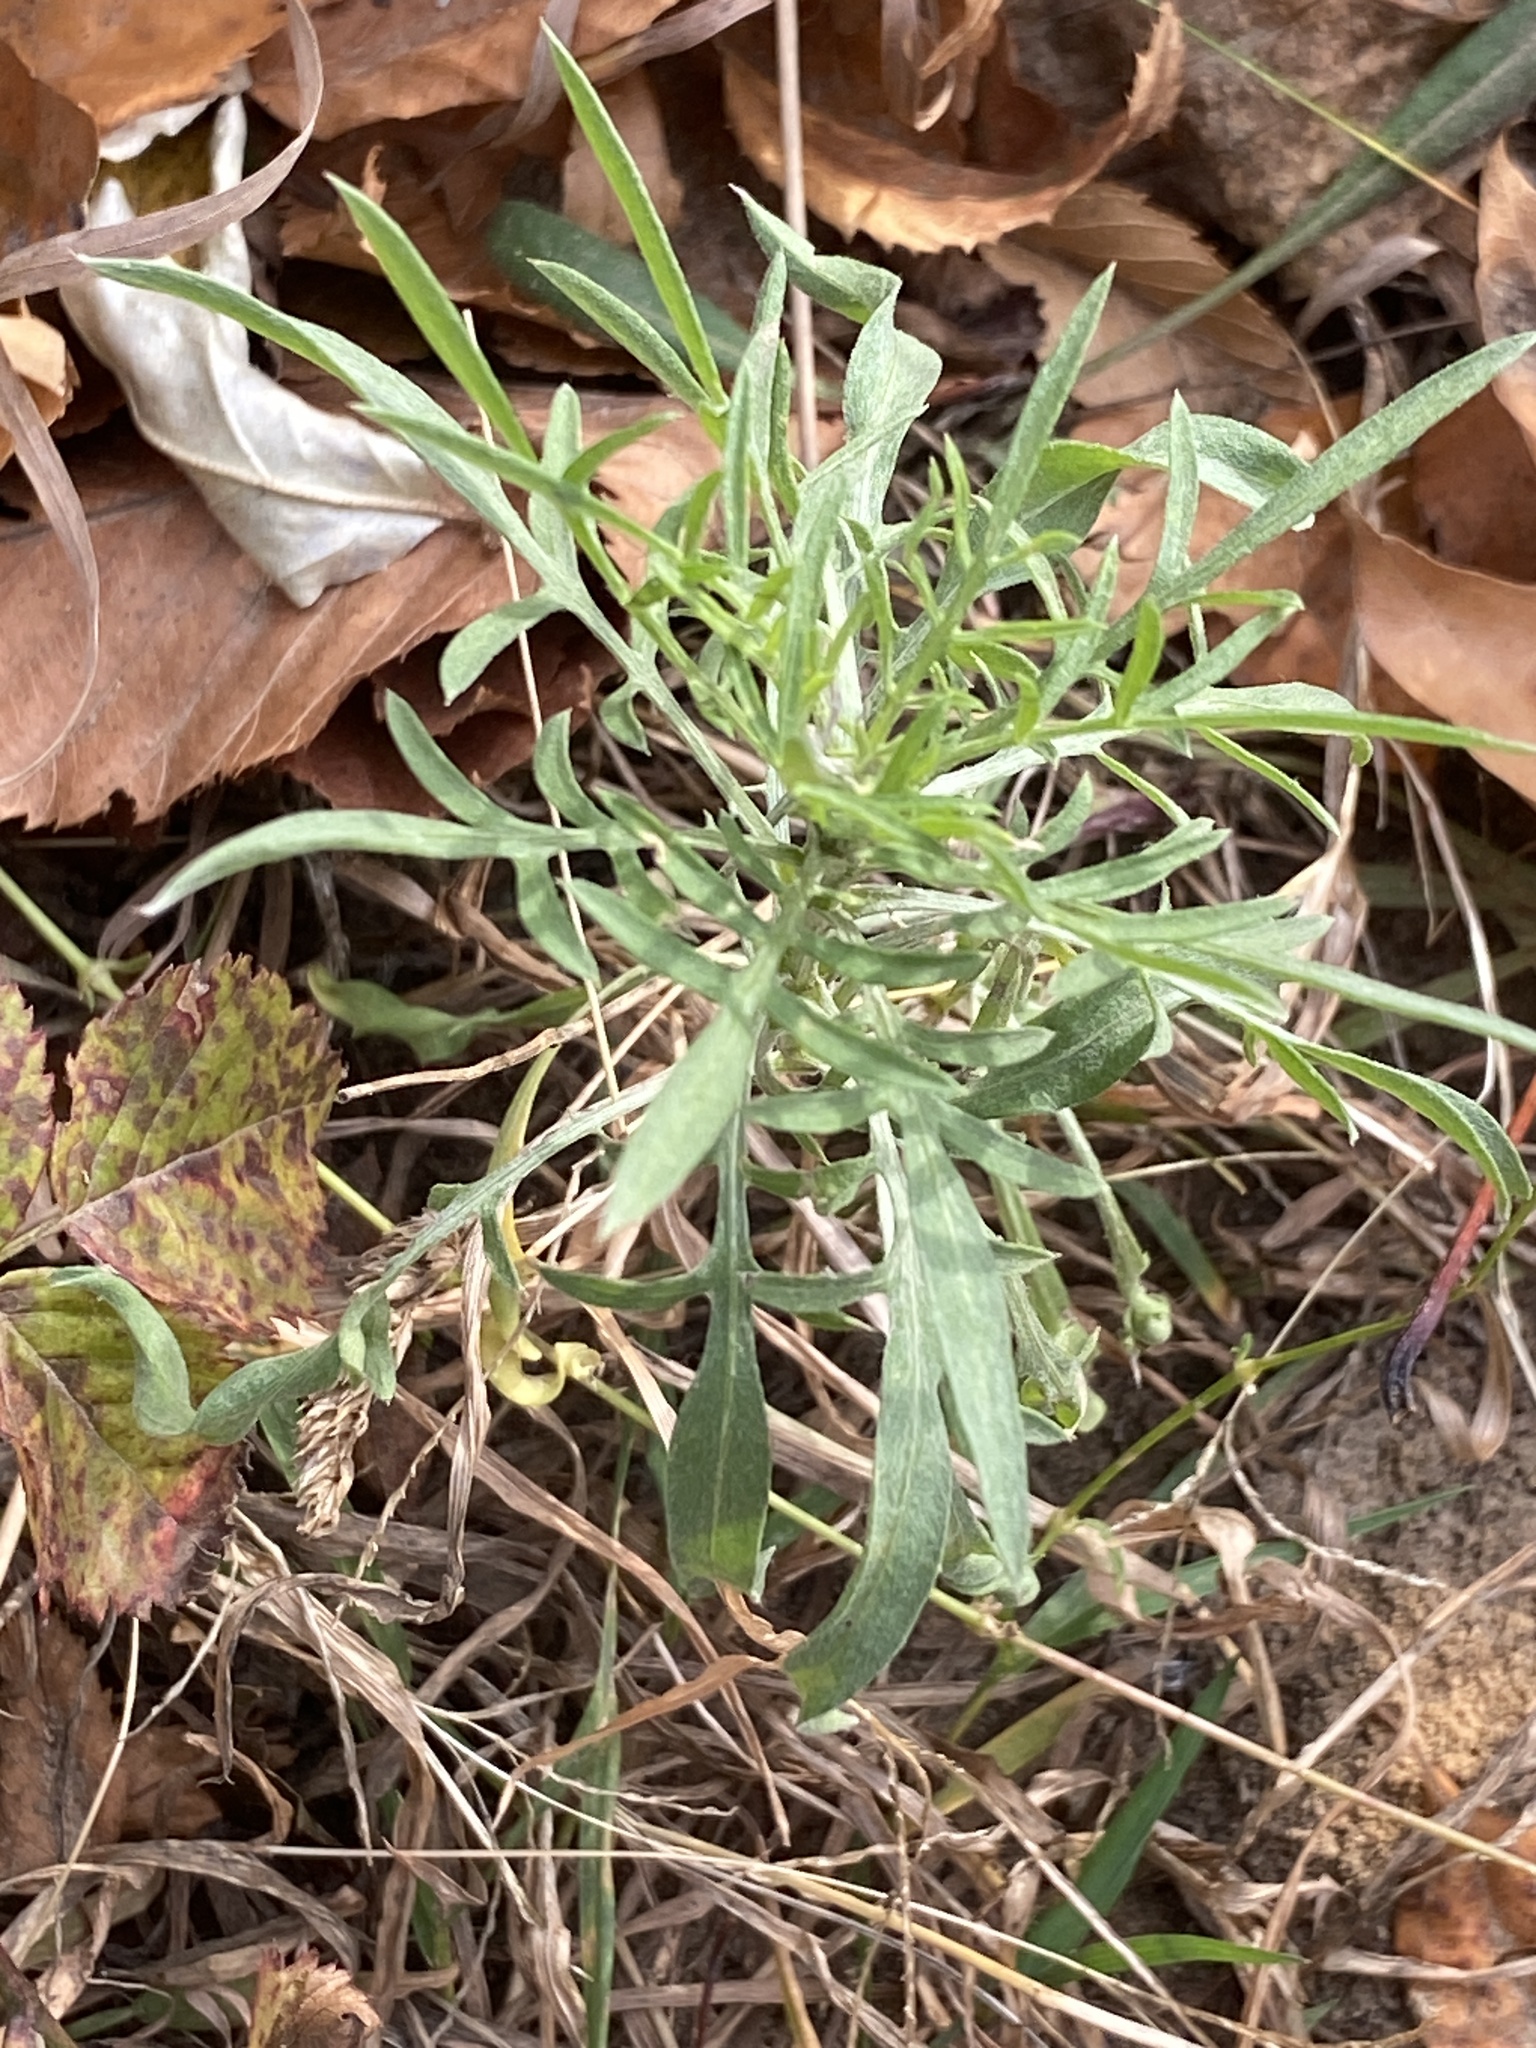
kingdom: Plantae
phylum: Tracheophyta
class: Magnoliopsida
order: Asterales
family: Asteraceae
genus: Centaurea
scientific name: Centaurea stoebe
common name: Spotted knapweed
